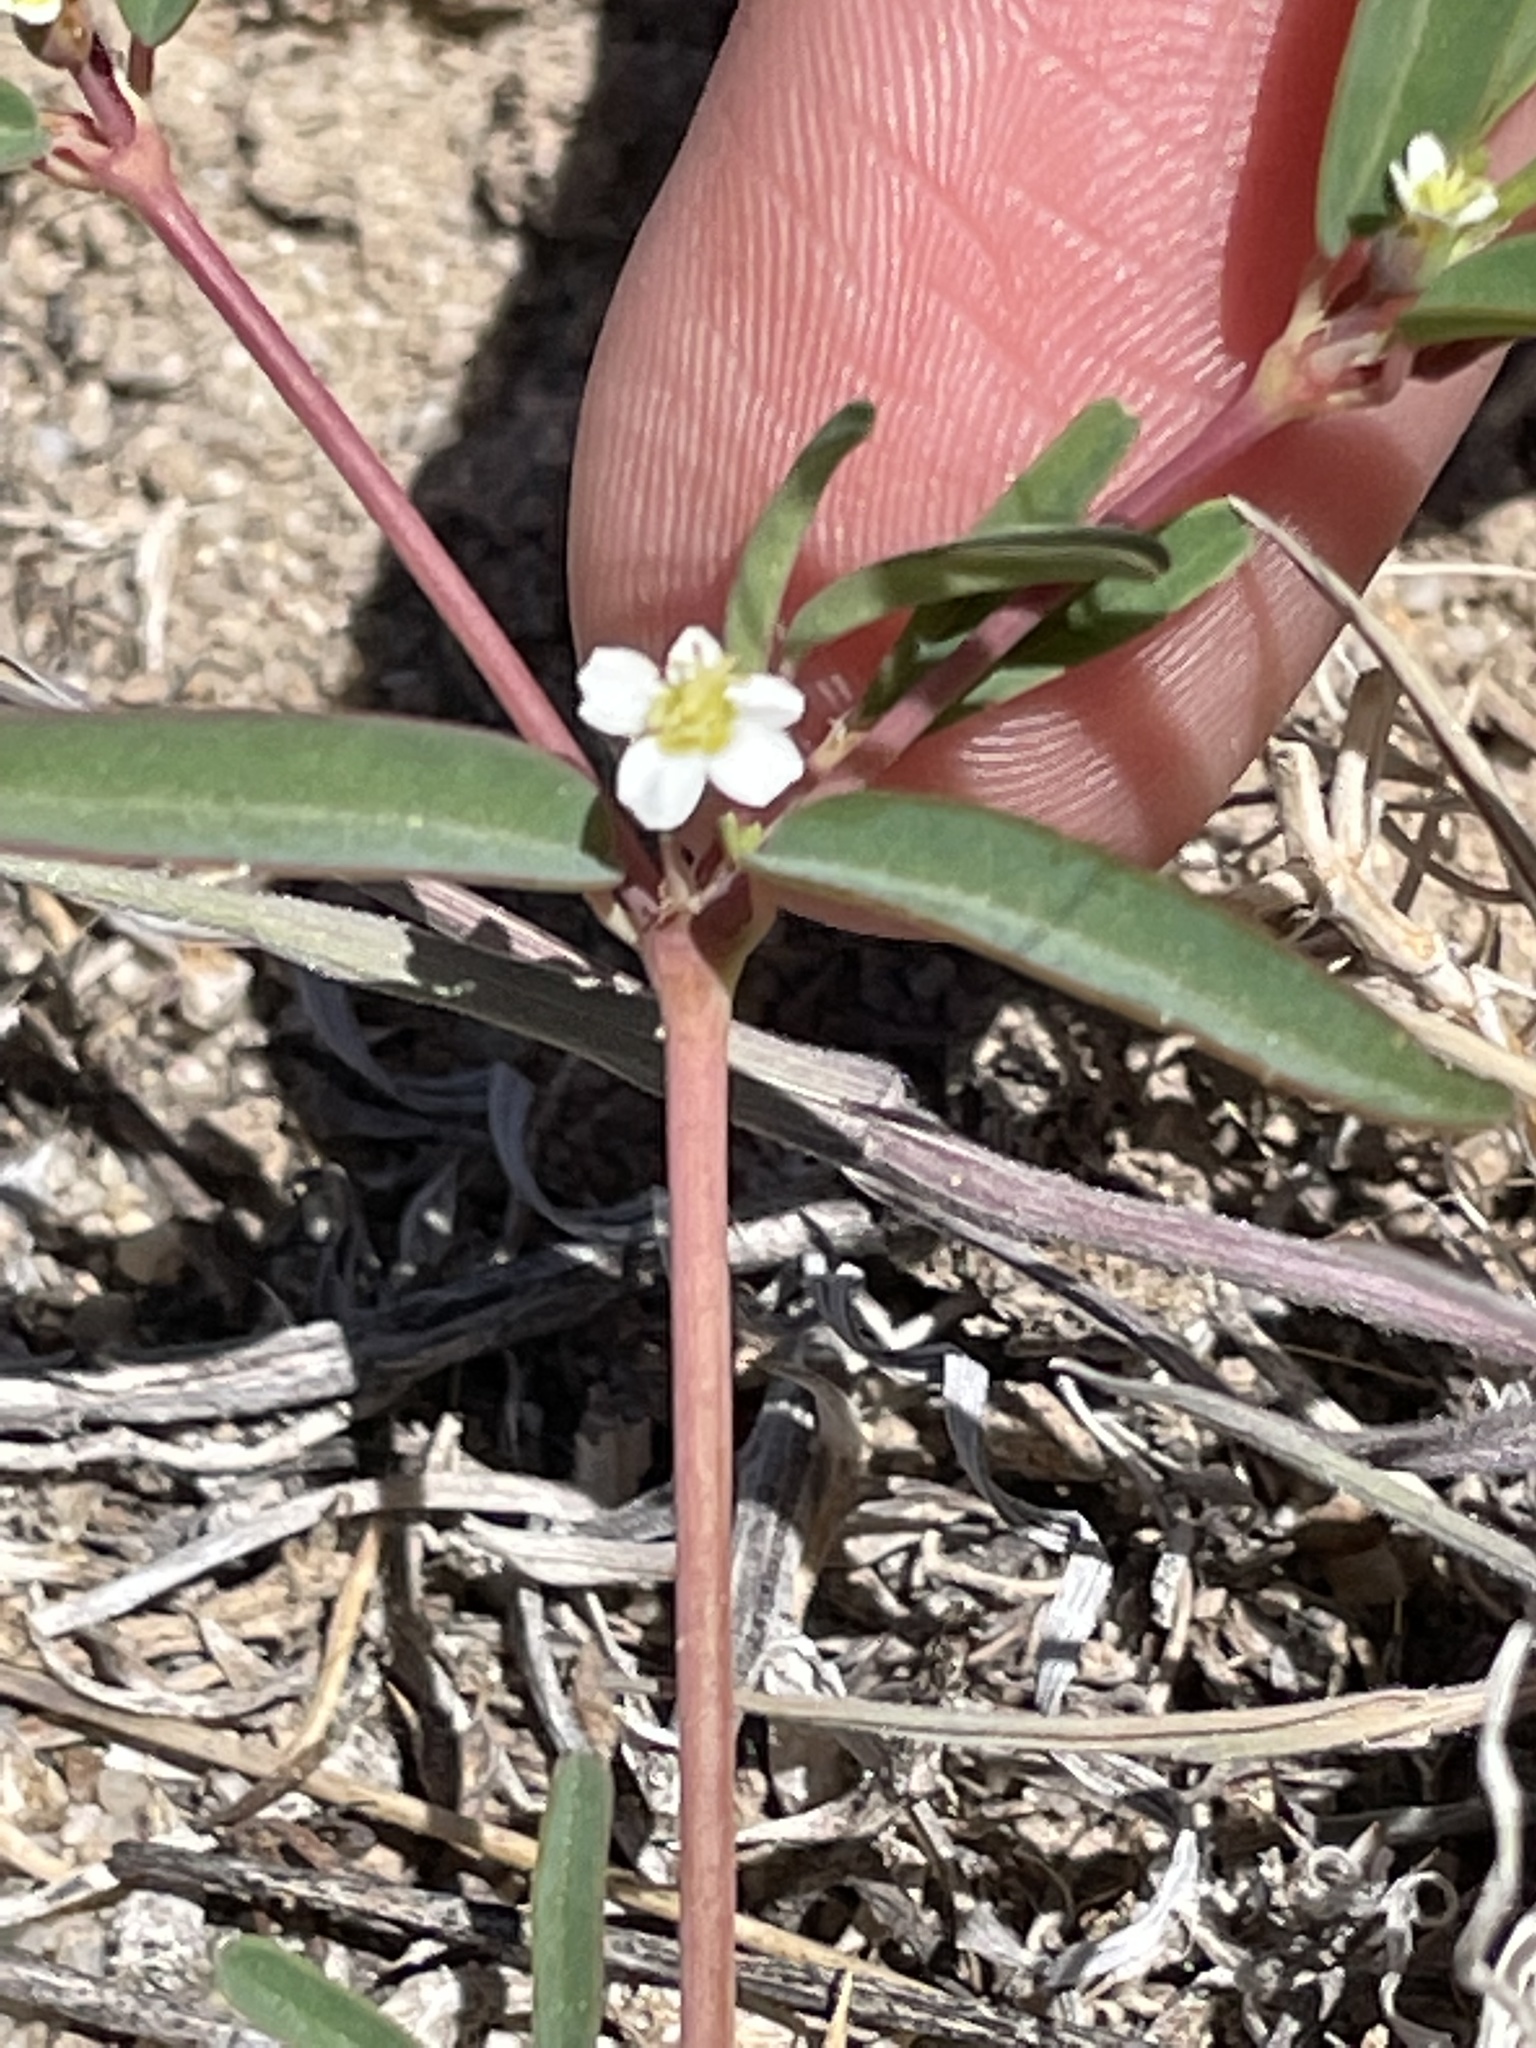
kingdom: Plantae
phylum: Tracheophyta
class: Magnoliopsida
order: Malpighiales
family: Euphorbiaceae
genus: Euphorbia
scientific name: Euphorbia missurica
